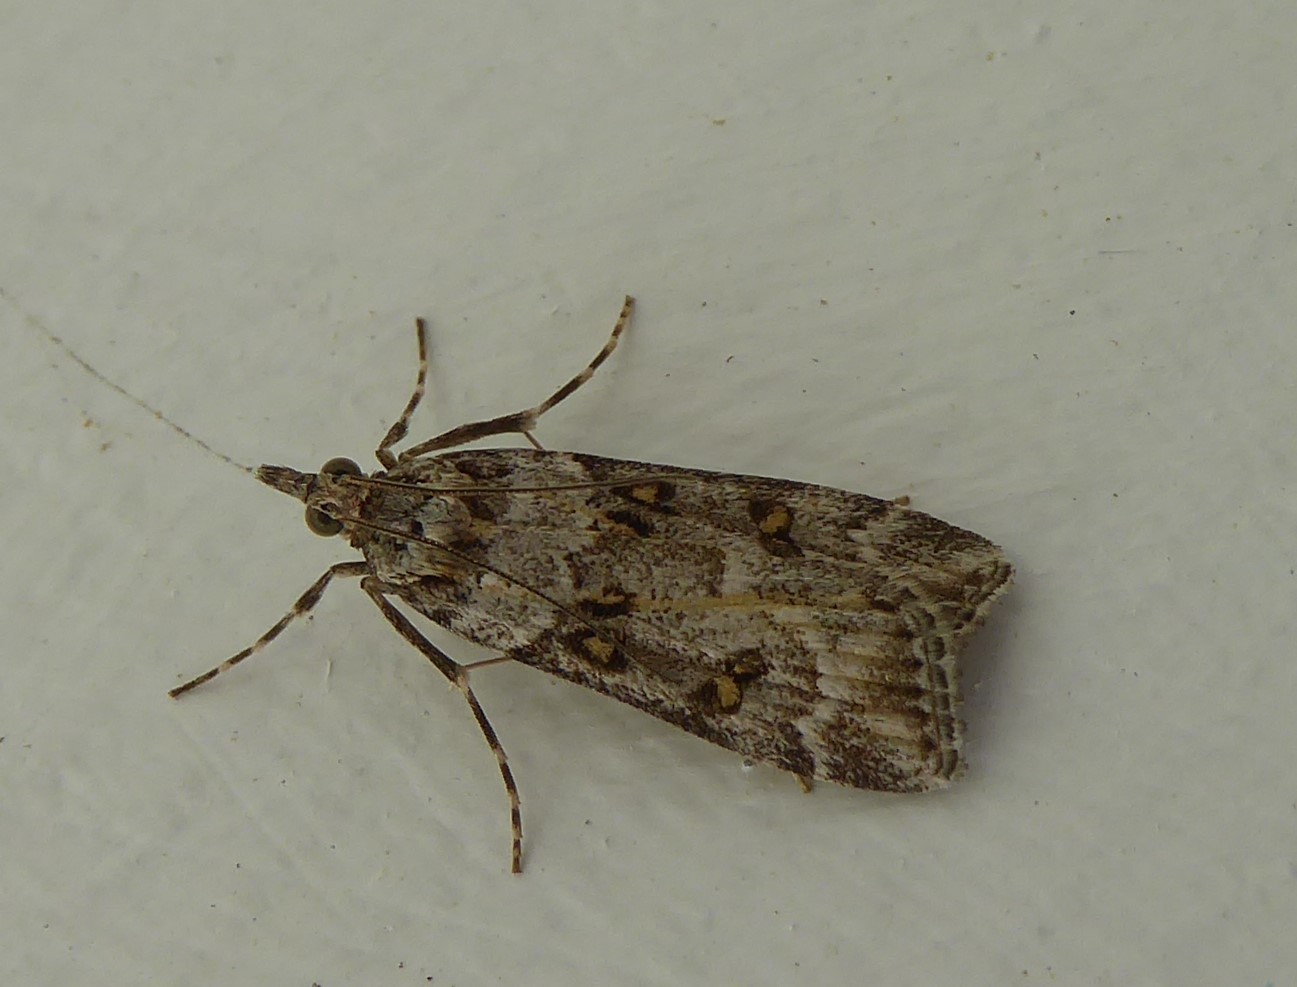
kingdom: Animalia
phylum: Arthropoda
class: Insecta
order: Lepidoptera
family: Crambidae
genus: Eudonia
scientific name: Eudonia diphtheralis
